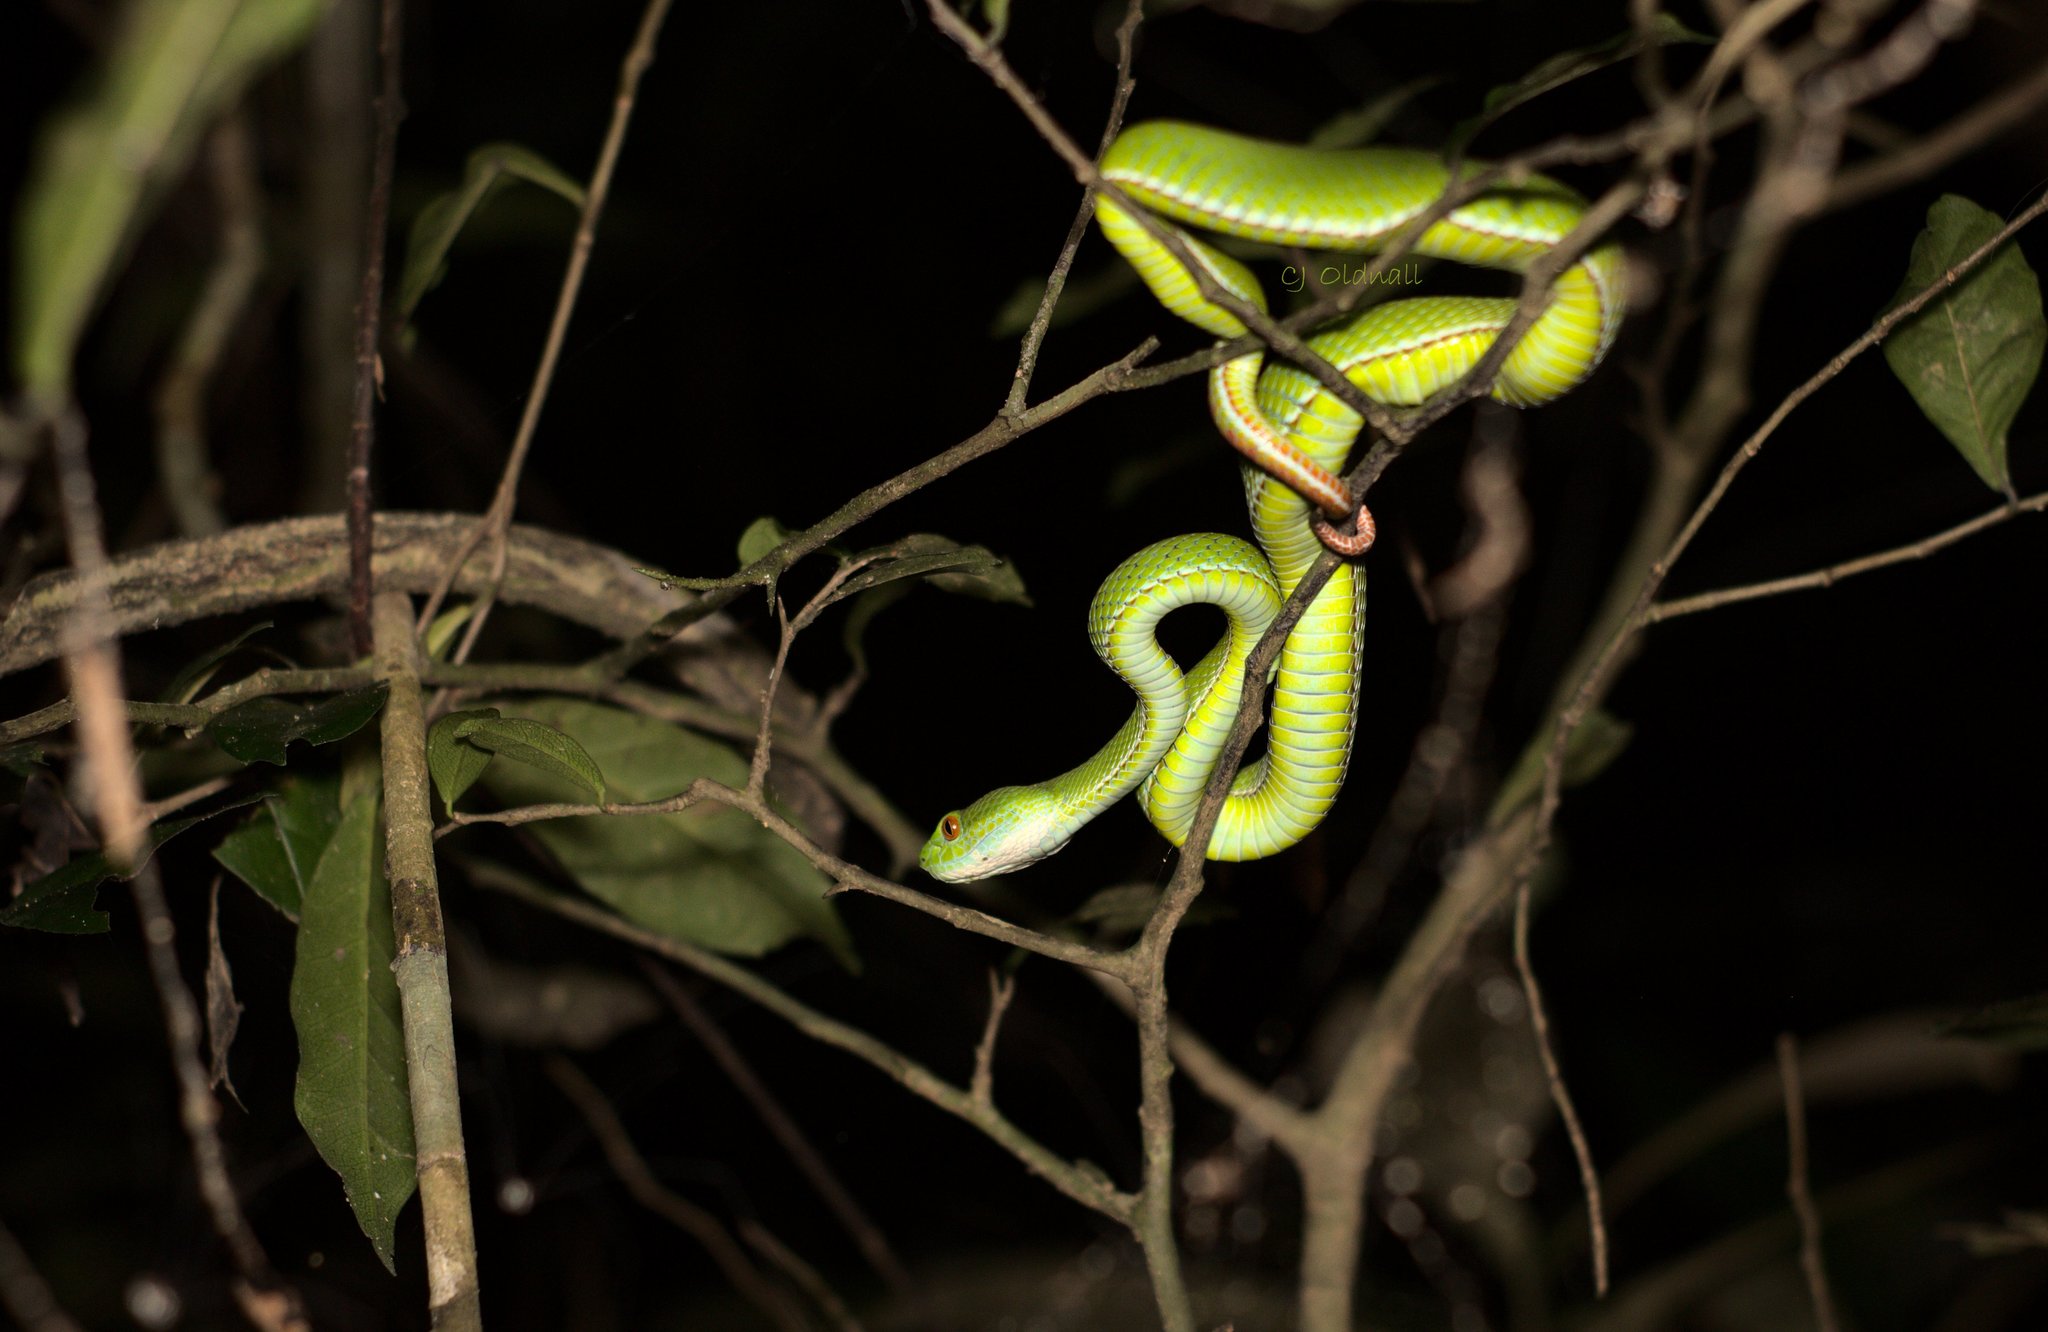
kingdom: Animalia
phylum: Chordata
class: Squamata
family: Viperidae
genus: Craspedocephalus
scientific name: Craspedocephalus rubeus
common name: Ruby-eyed green pitviper
